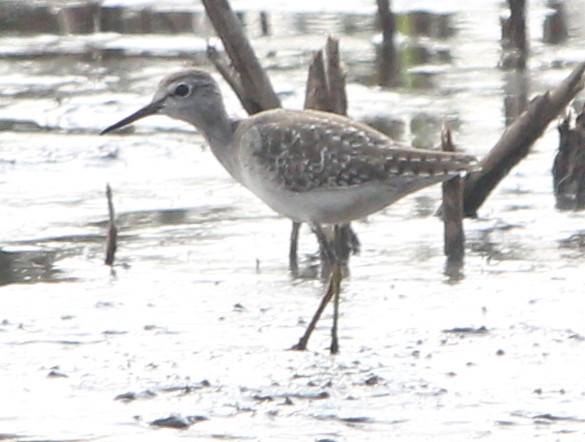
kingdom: Animalia
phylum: Chordata
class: Aves
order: Charadriiformes
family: Scolopacidae
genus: Tringa
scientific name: Tringa glareola
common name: Wood sandpiper
